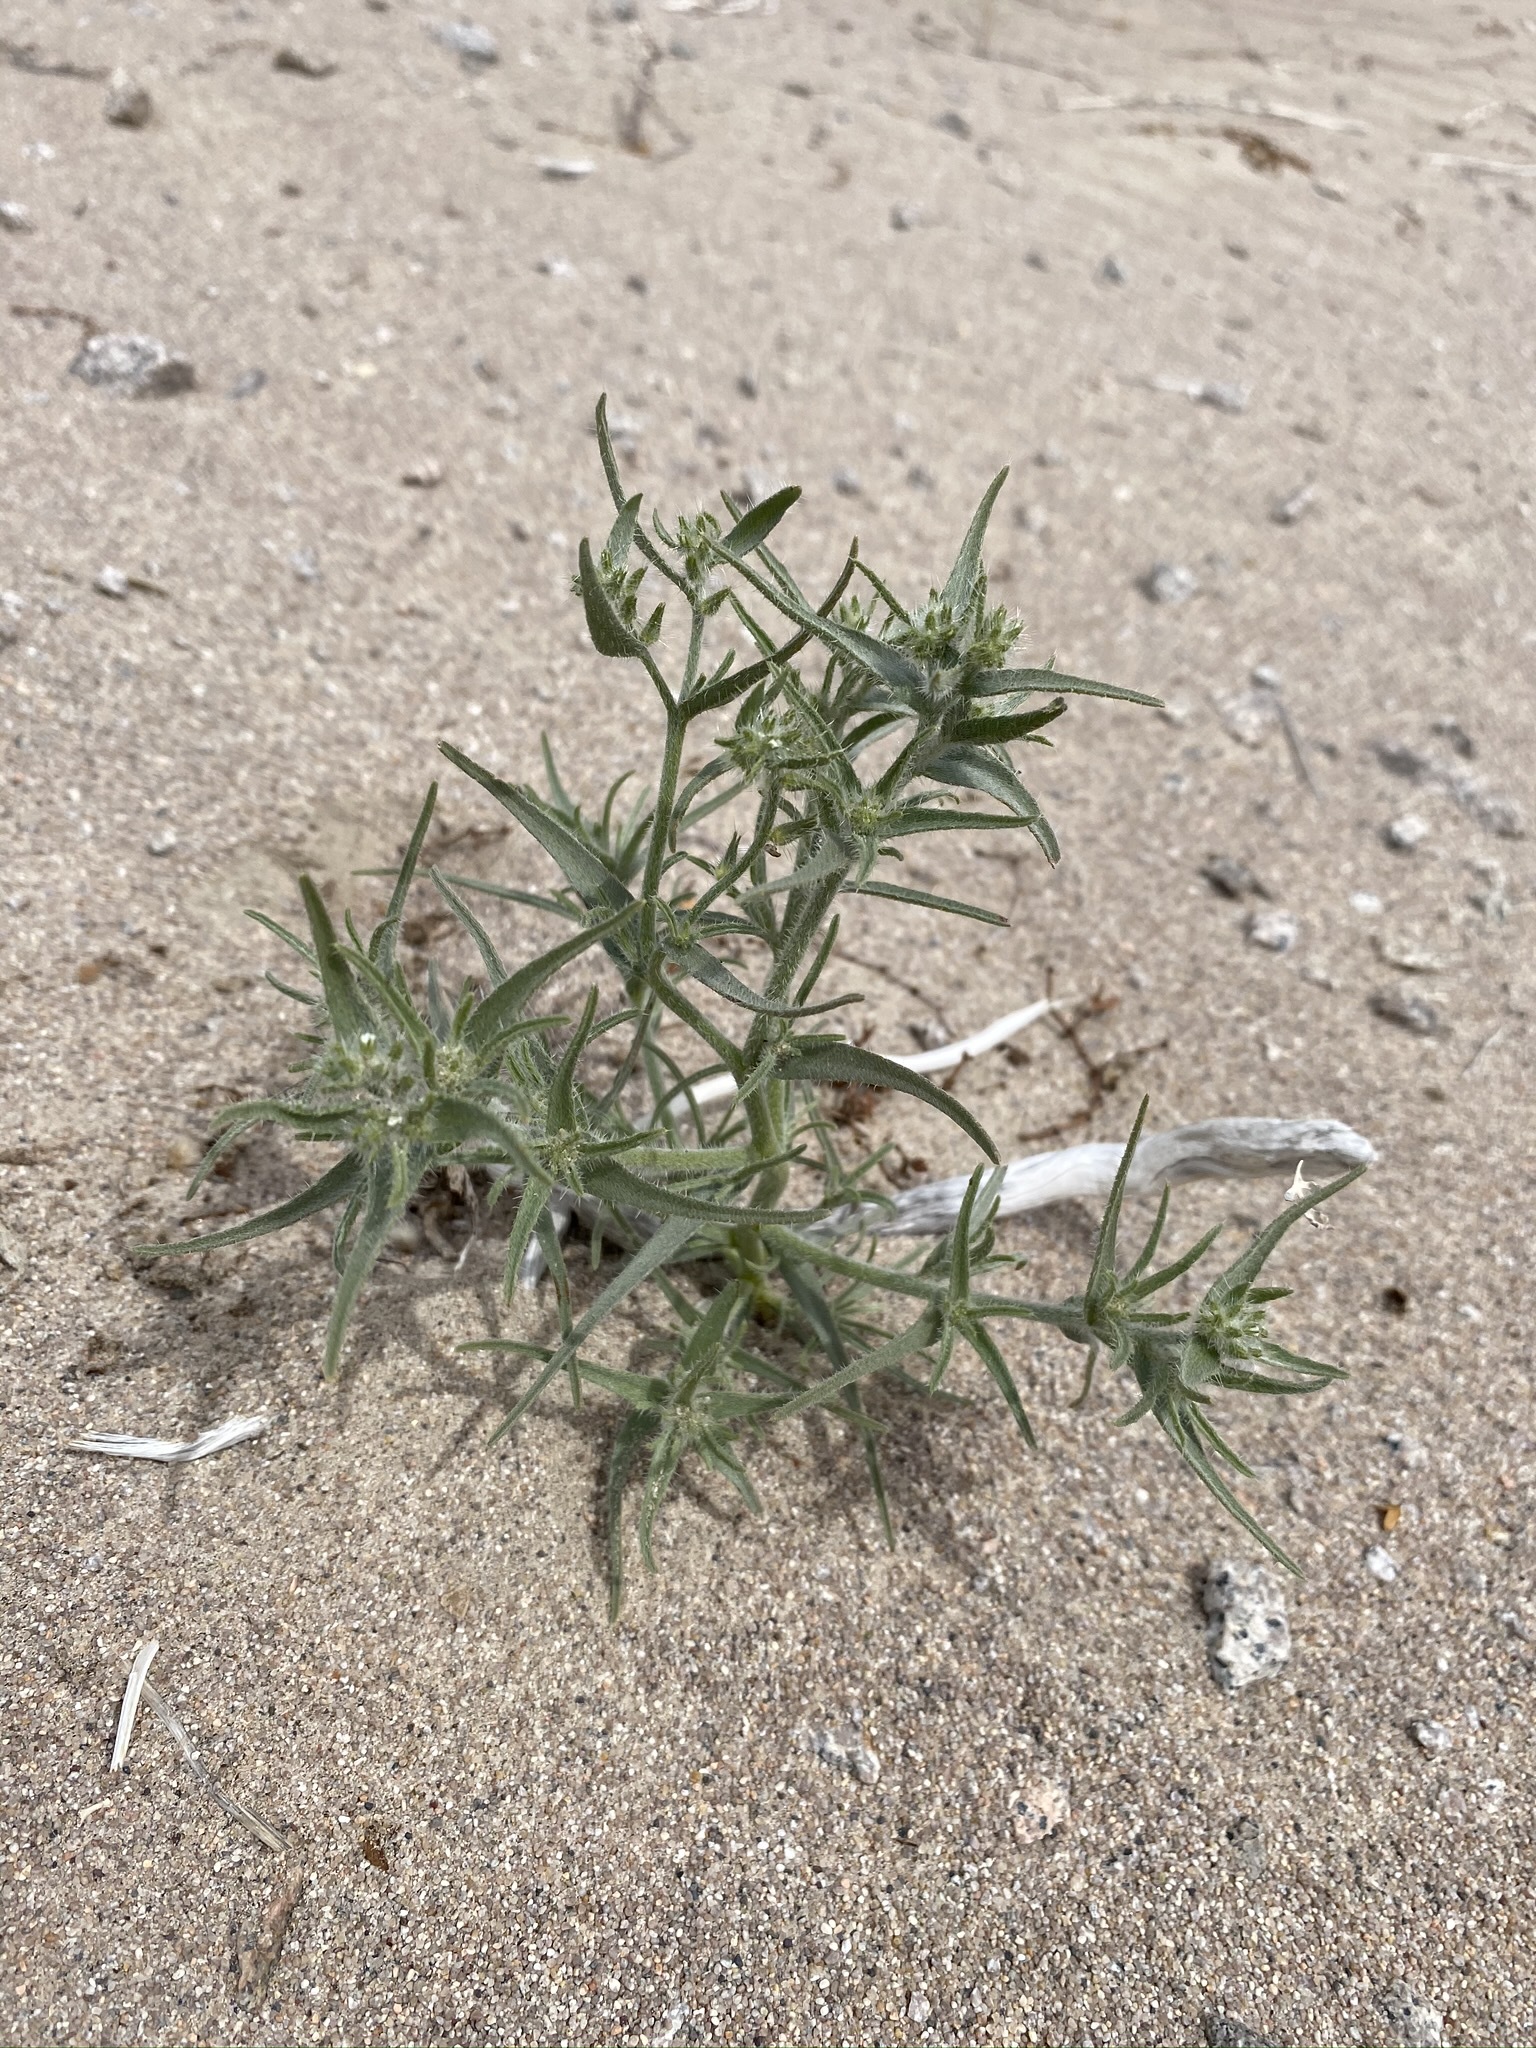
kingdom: Plantae
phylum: Tracheophyta
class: Magnoliopsida
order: Boraginales
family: Boraginaceae
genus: Johnstonella
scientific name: Johnstonella costata
